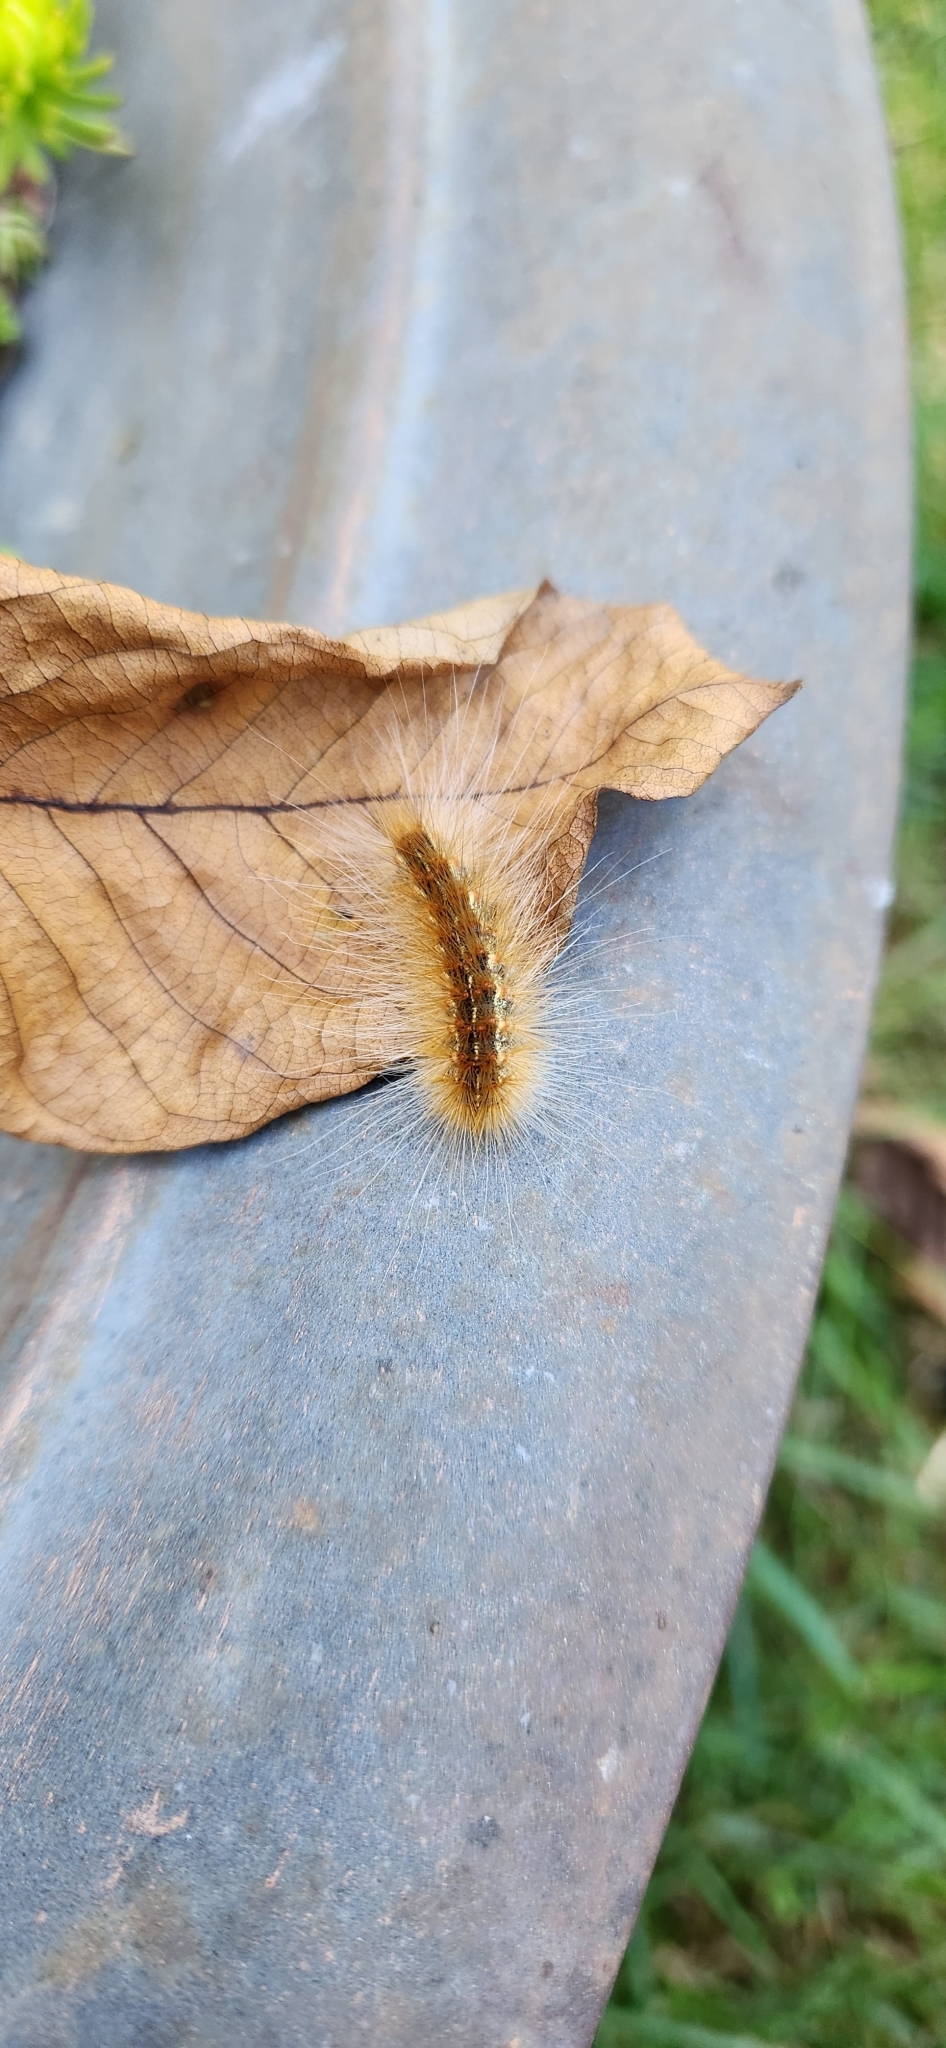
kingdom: Animalia
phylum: Arthropoda
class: Insecta
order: Lepidoptera
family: Erebidae
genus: Hyphantria
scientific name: Hyphantria cunea
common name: American white moth
